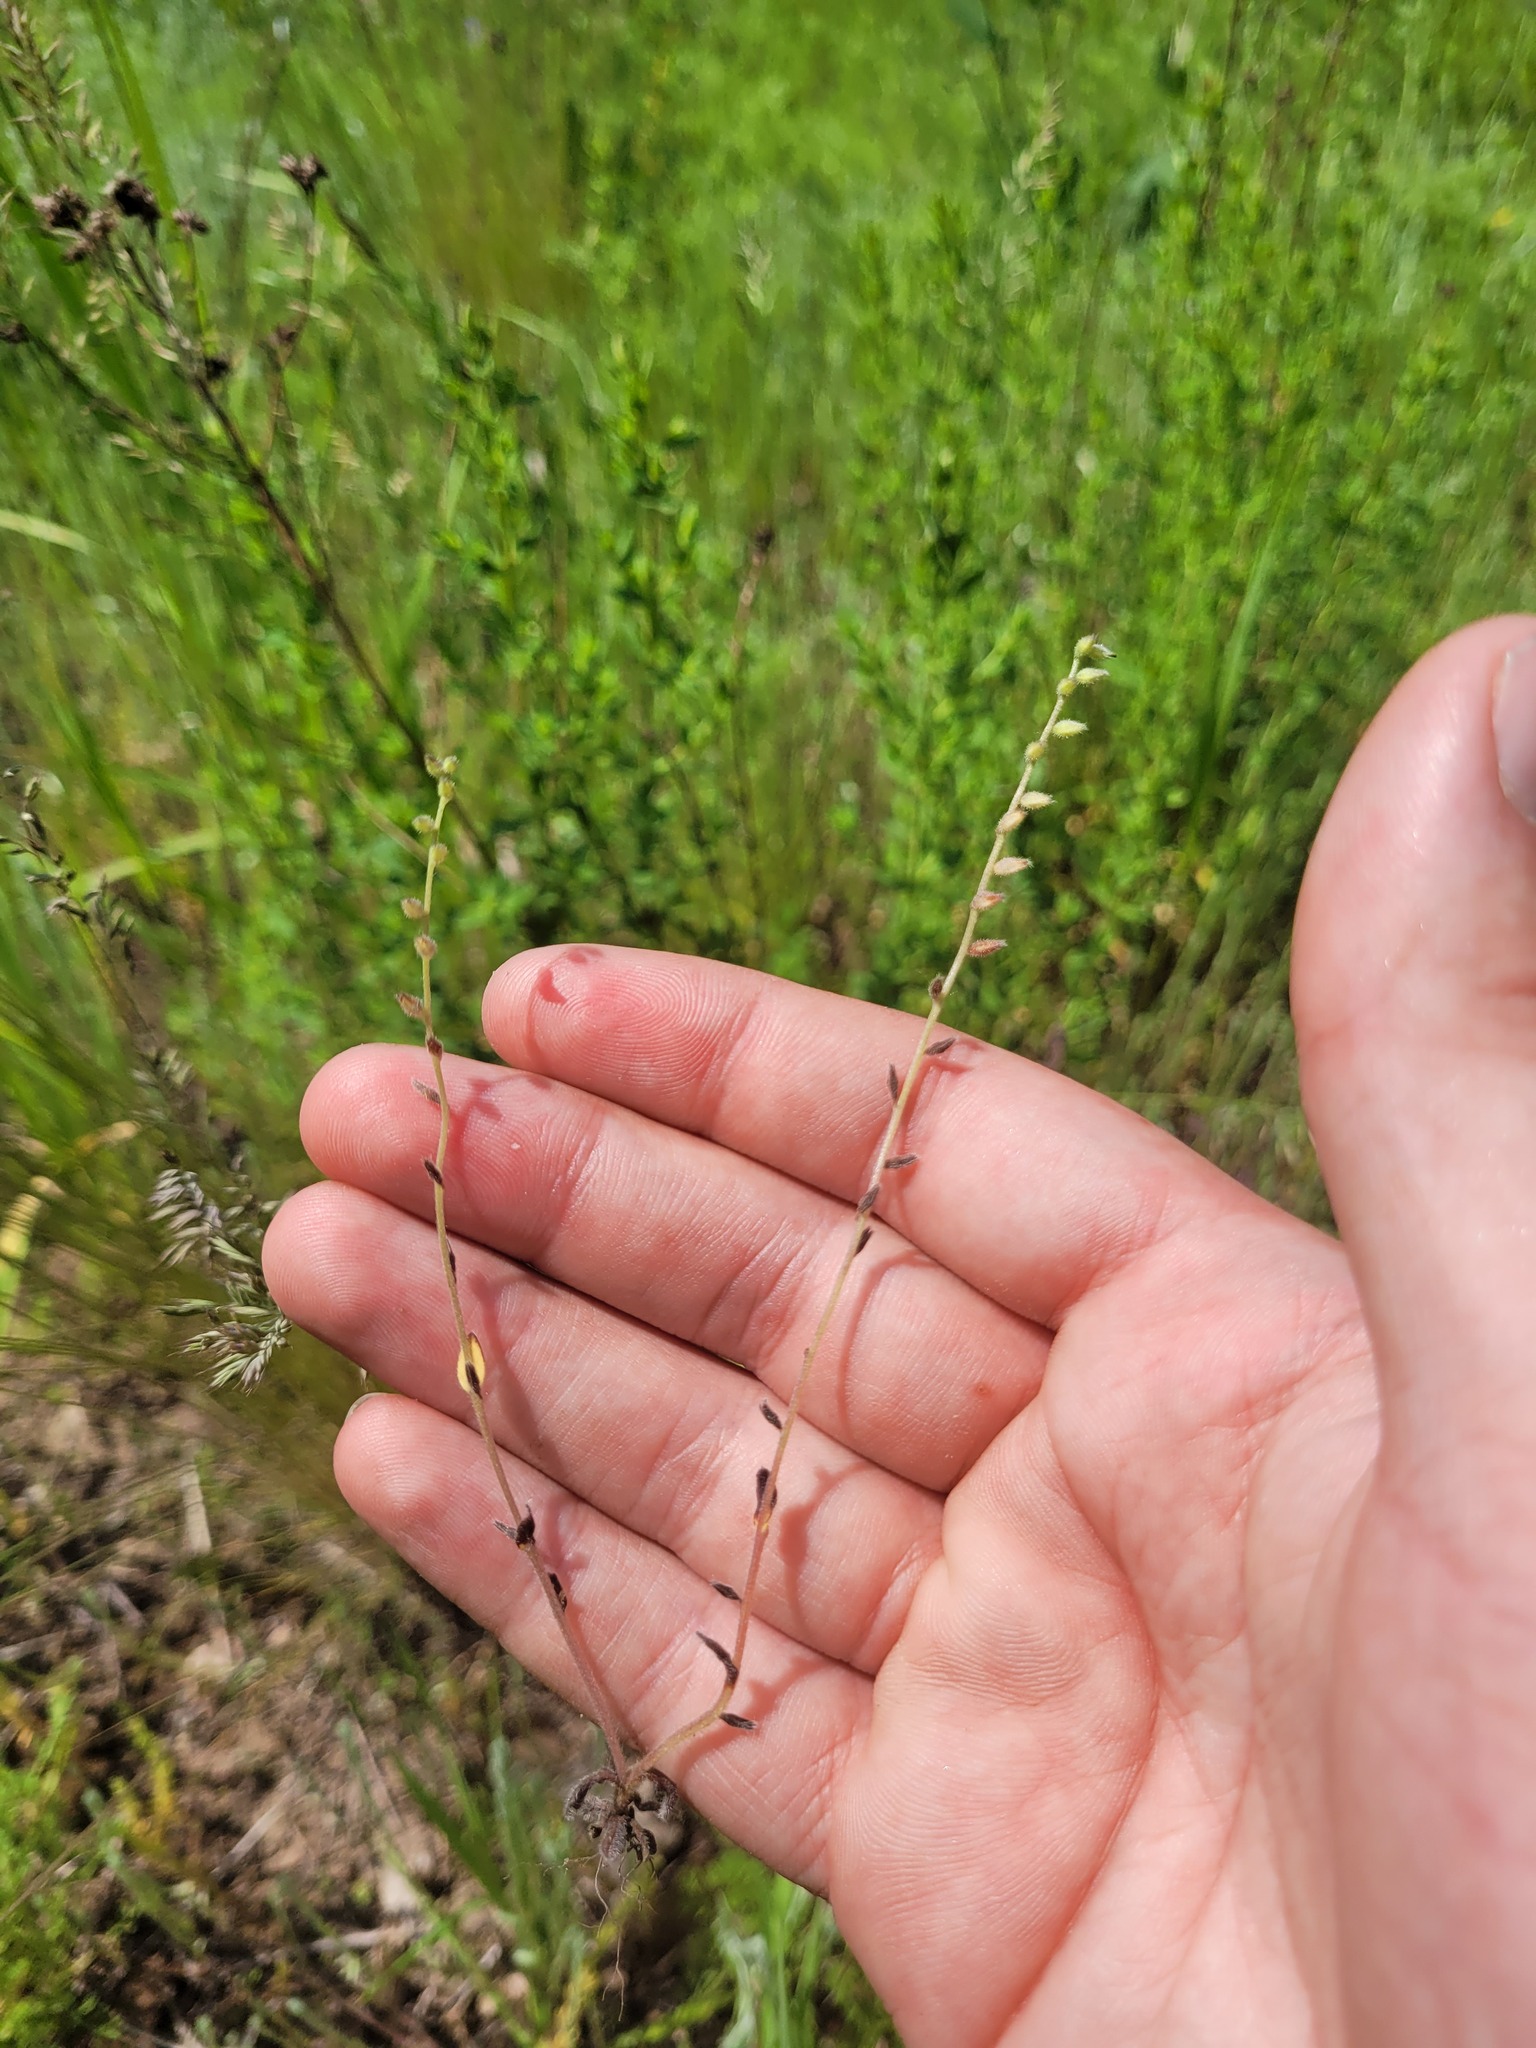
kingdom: Plantae
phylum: Tracheophyta
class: Magnoliopsida
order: Boraginales
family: Boraginaceae
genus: Myosotis
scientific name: Myosotis stricta
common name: Strict forget-me-not
